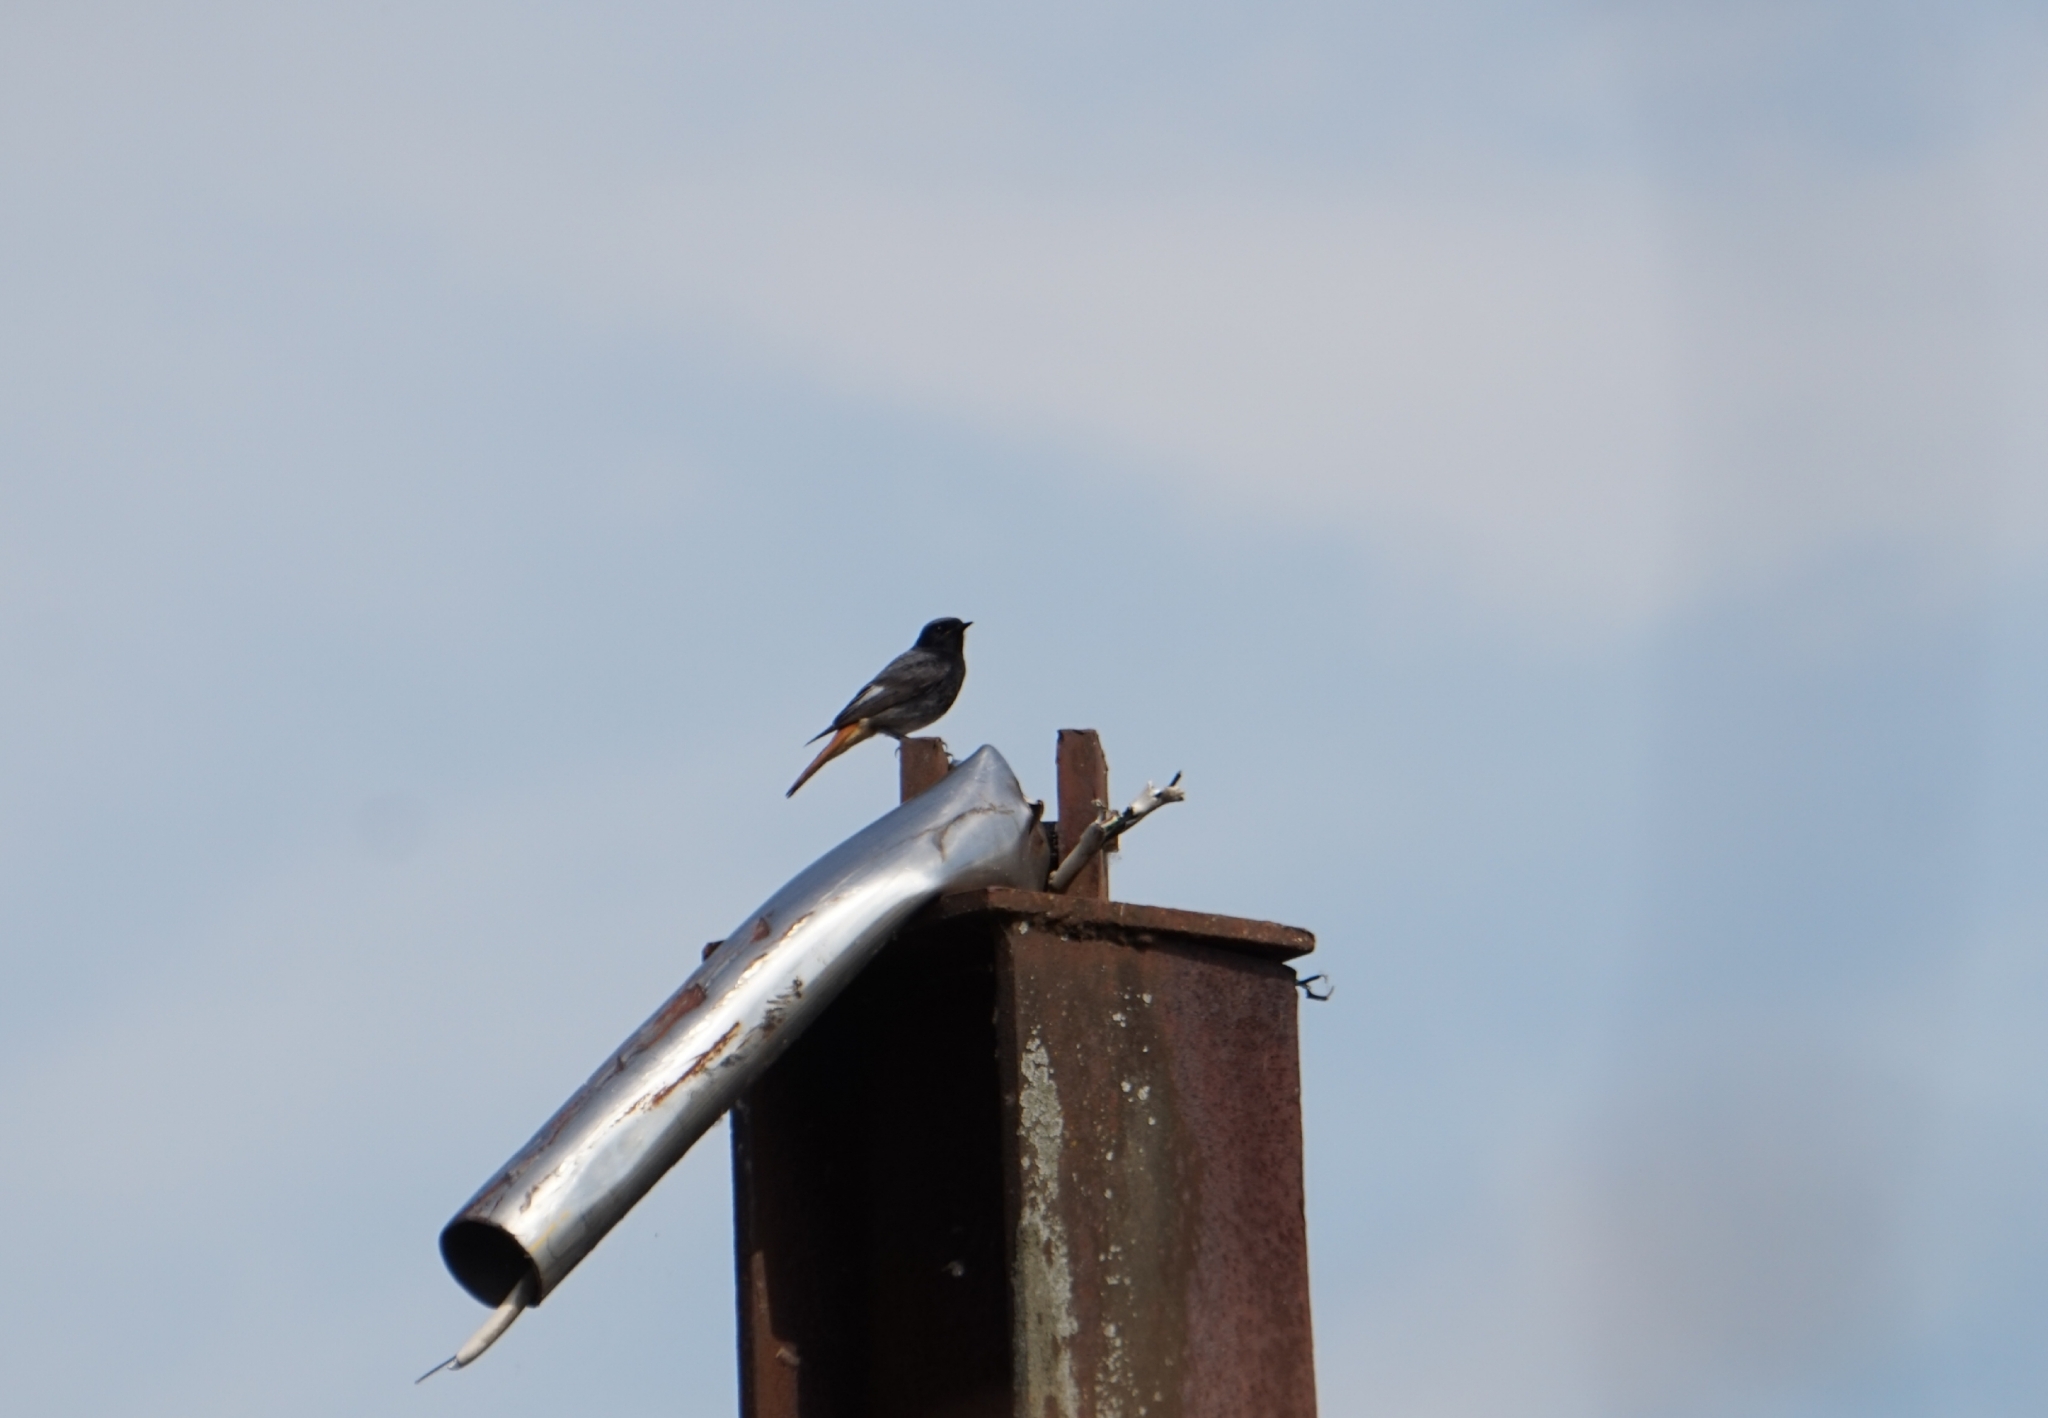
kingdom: Animalia
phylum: Chordata
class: Aves
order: Passeriformes
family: Muscicapidae
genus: Phoenicurus
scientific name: Phoenicurus ochruros
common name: Black redstart
